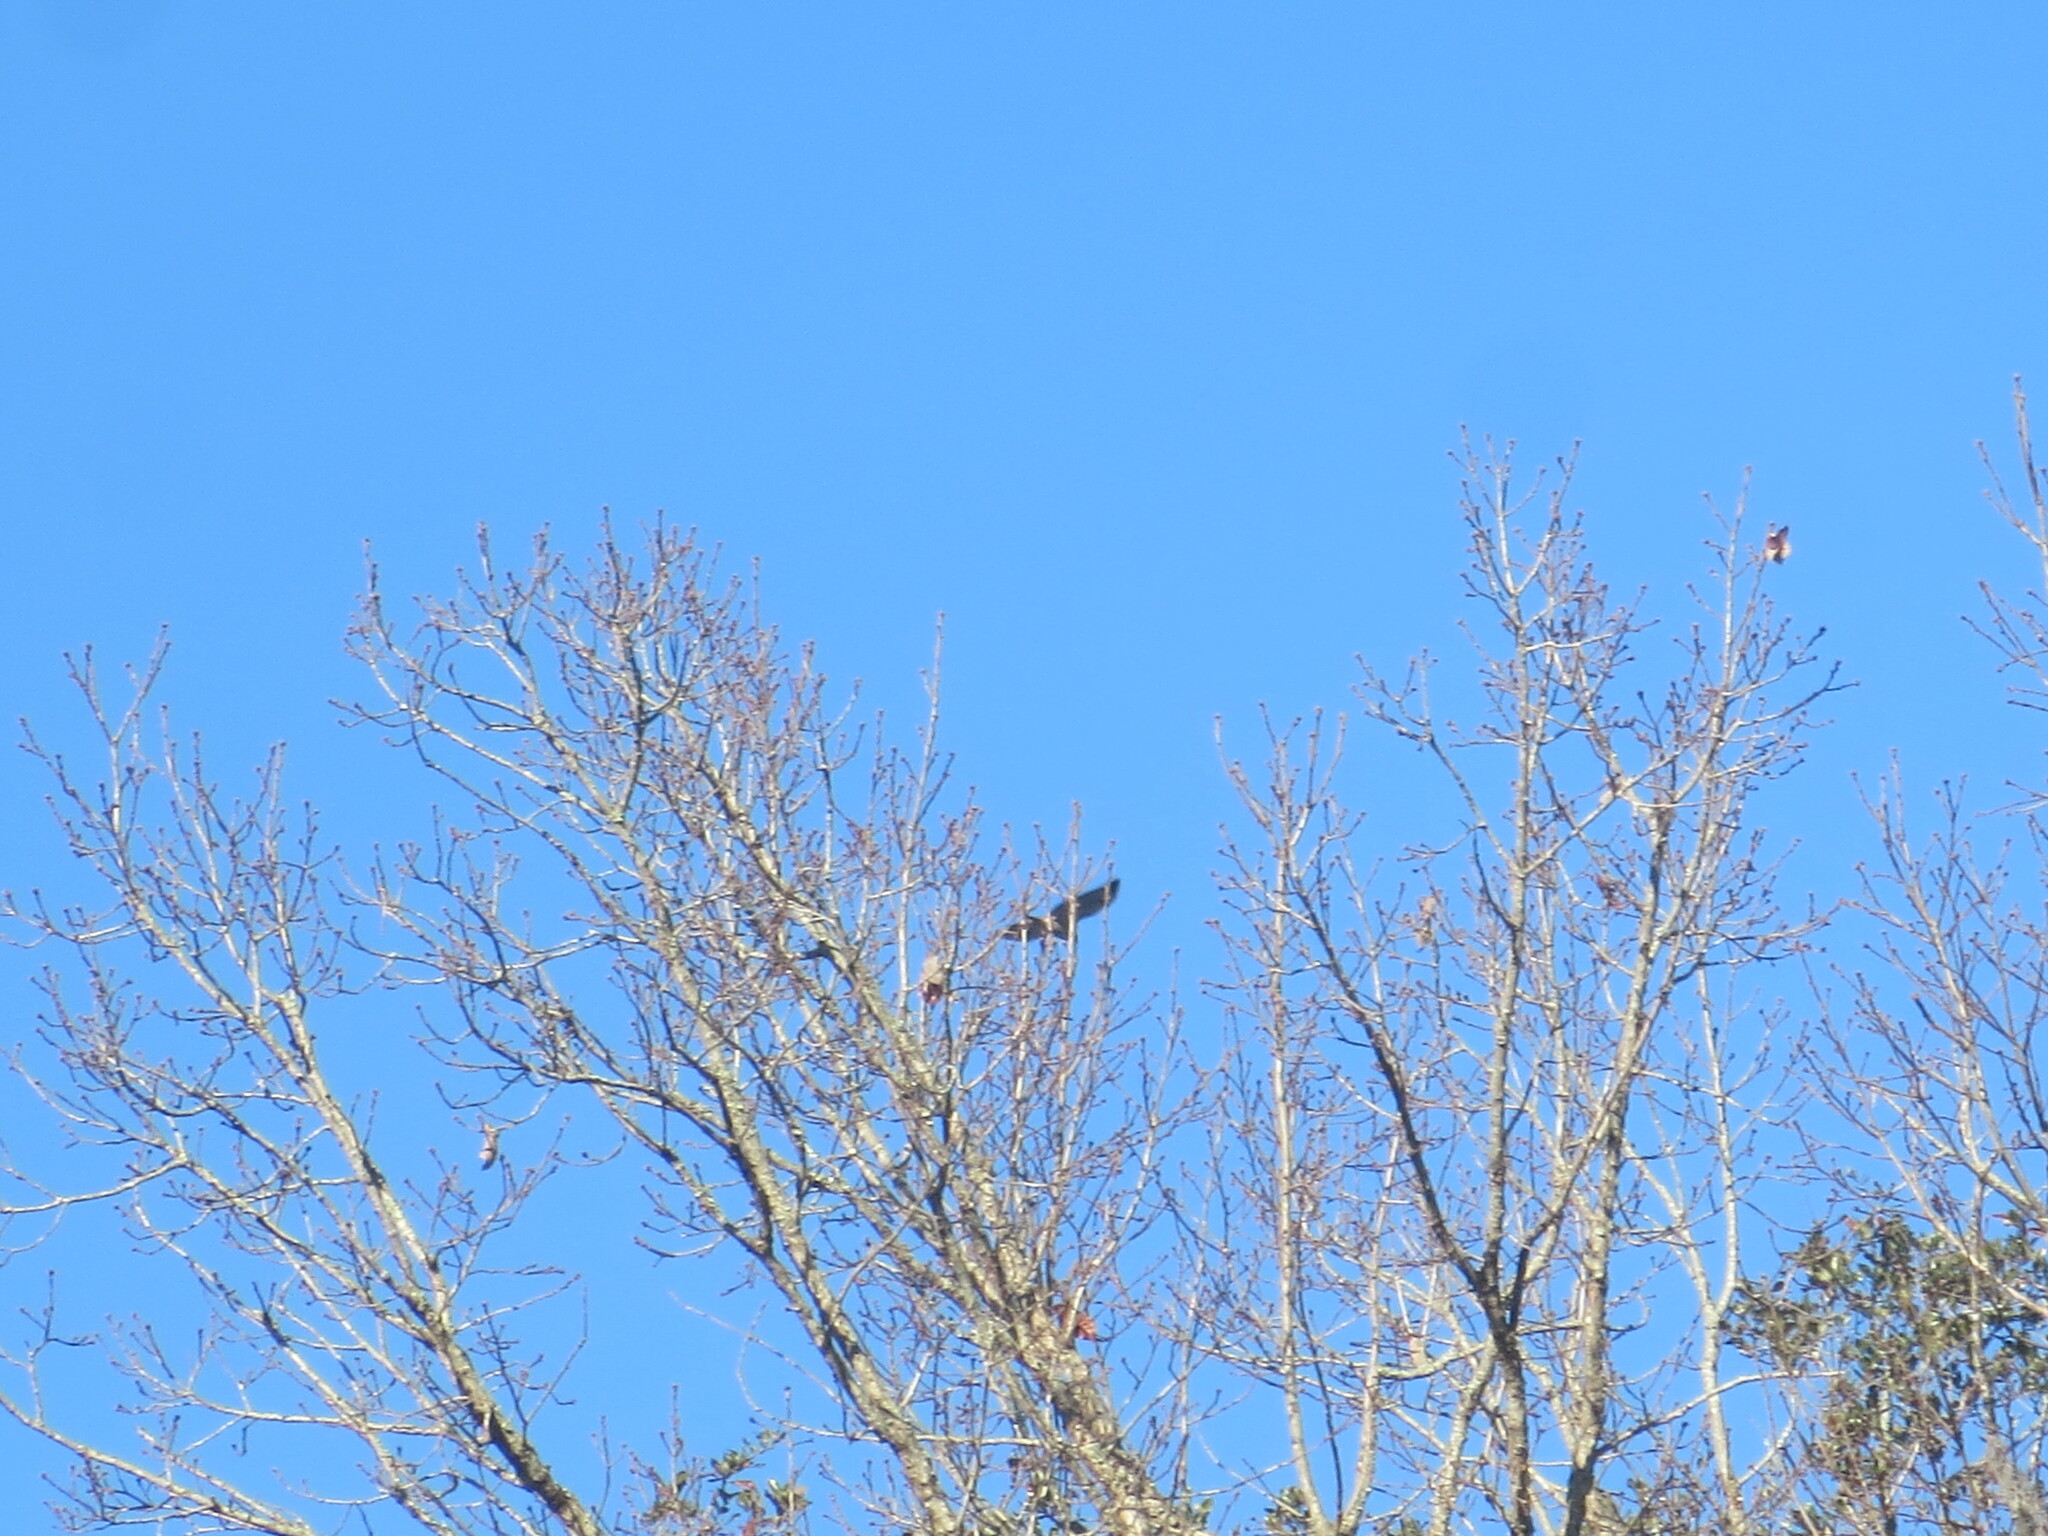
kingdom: Animalia
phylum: Chordata
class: Aves
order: Accipitriformes
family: Cathartidae
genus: Cathartes
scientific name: Cathartes aura
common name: Turkey vulture
